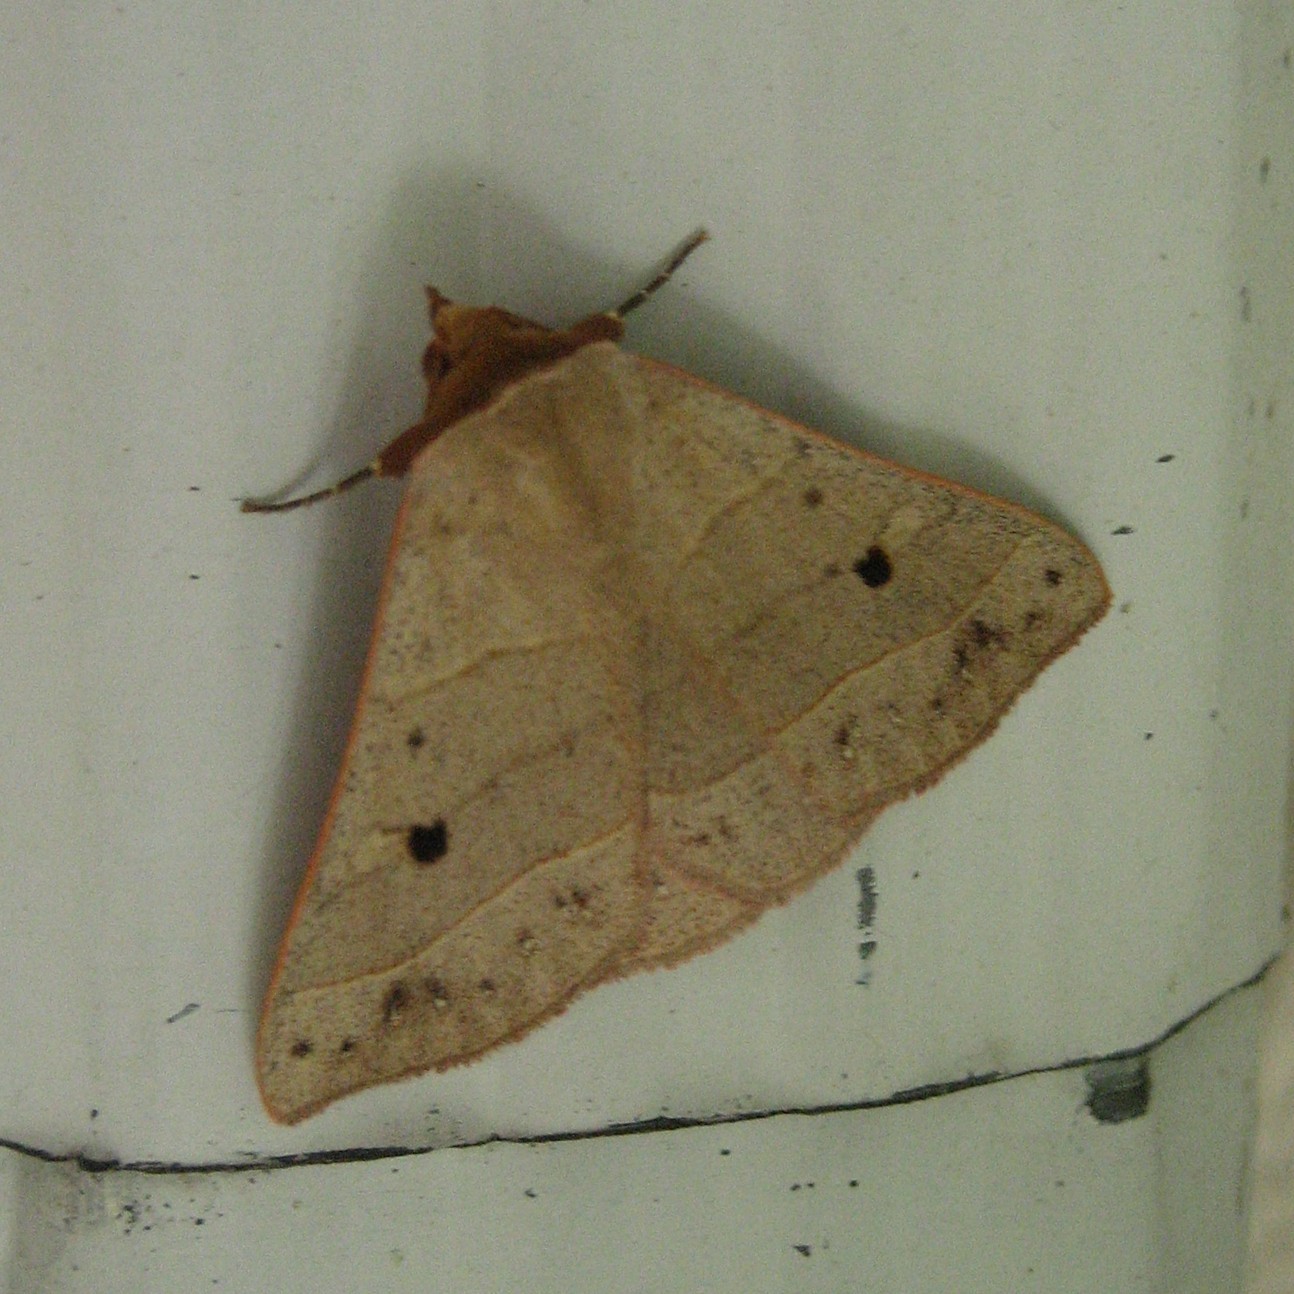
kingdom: Animalia
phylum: Arthropoda
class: Insecta
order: Lepidoptera
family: Erebidae
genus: Panopoda
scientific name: Panopoda rufimargo
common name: Red-lined panopoda moth
